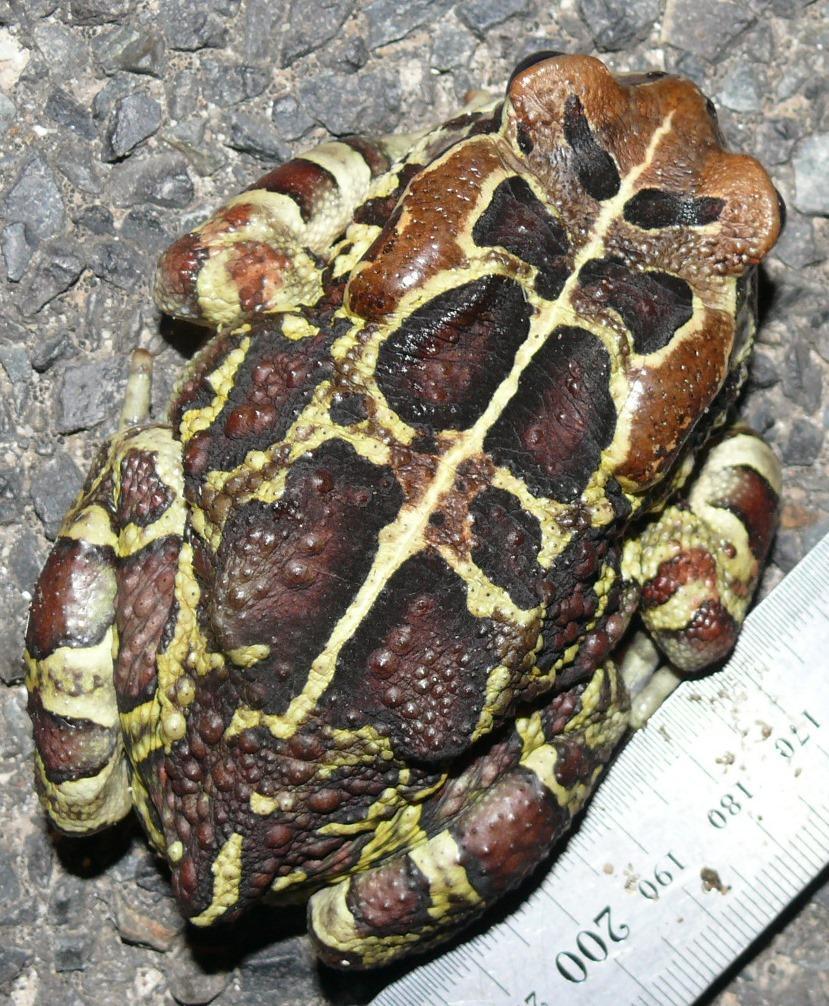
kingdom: Animalia
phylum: Chordata
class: Amphibia
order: Anura
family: Bufonidae
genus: Sclerophrys
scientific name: Sclerophrys pantherina
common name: Panther toad
